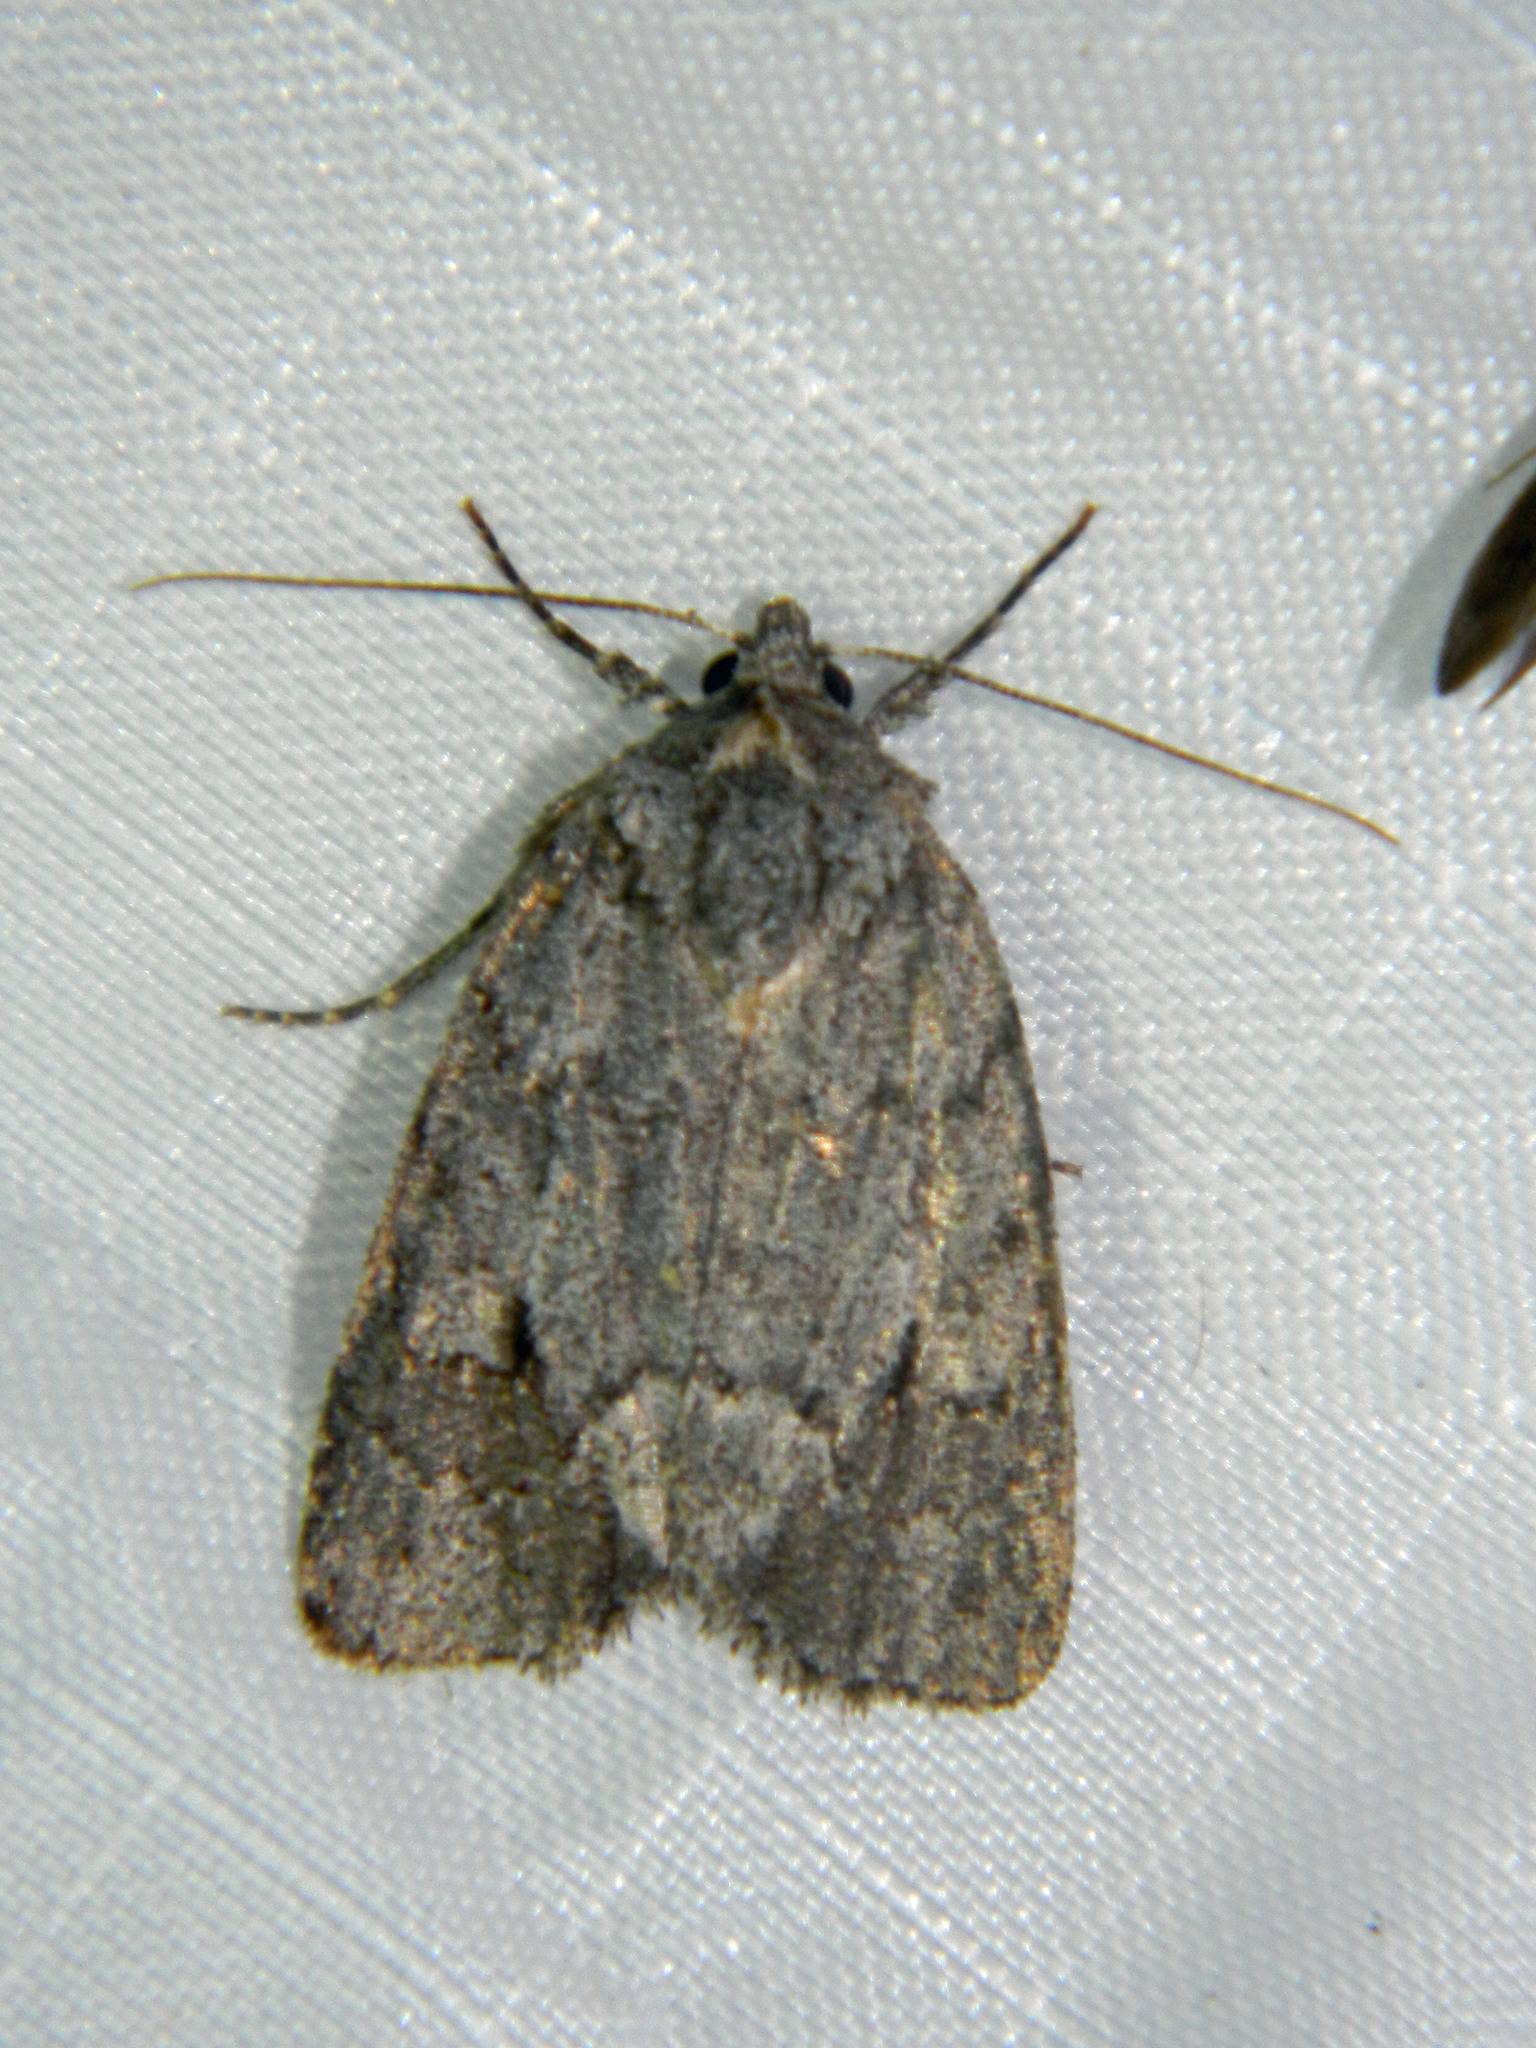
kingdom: Animalia
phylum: Arthropoda
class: Insecta
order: Lepidoptera
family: Noctuidae
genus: Sympistis
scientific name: Sympistis dentata
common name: Blueberry sallow
